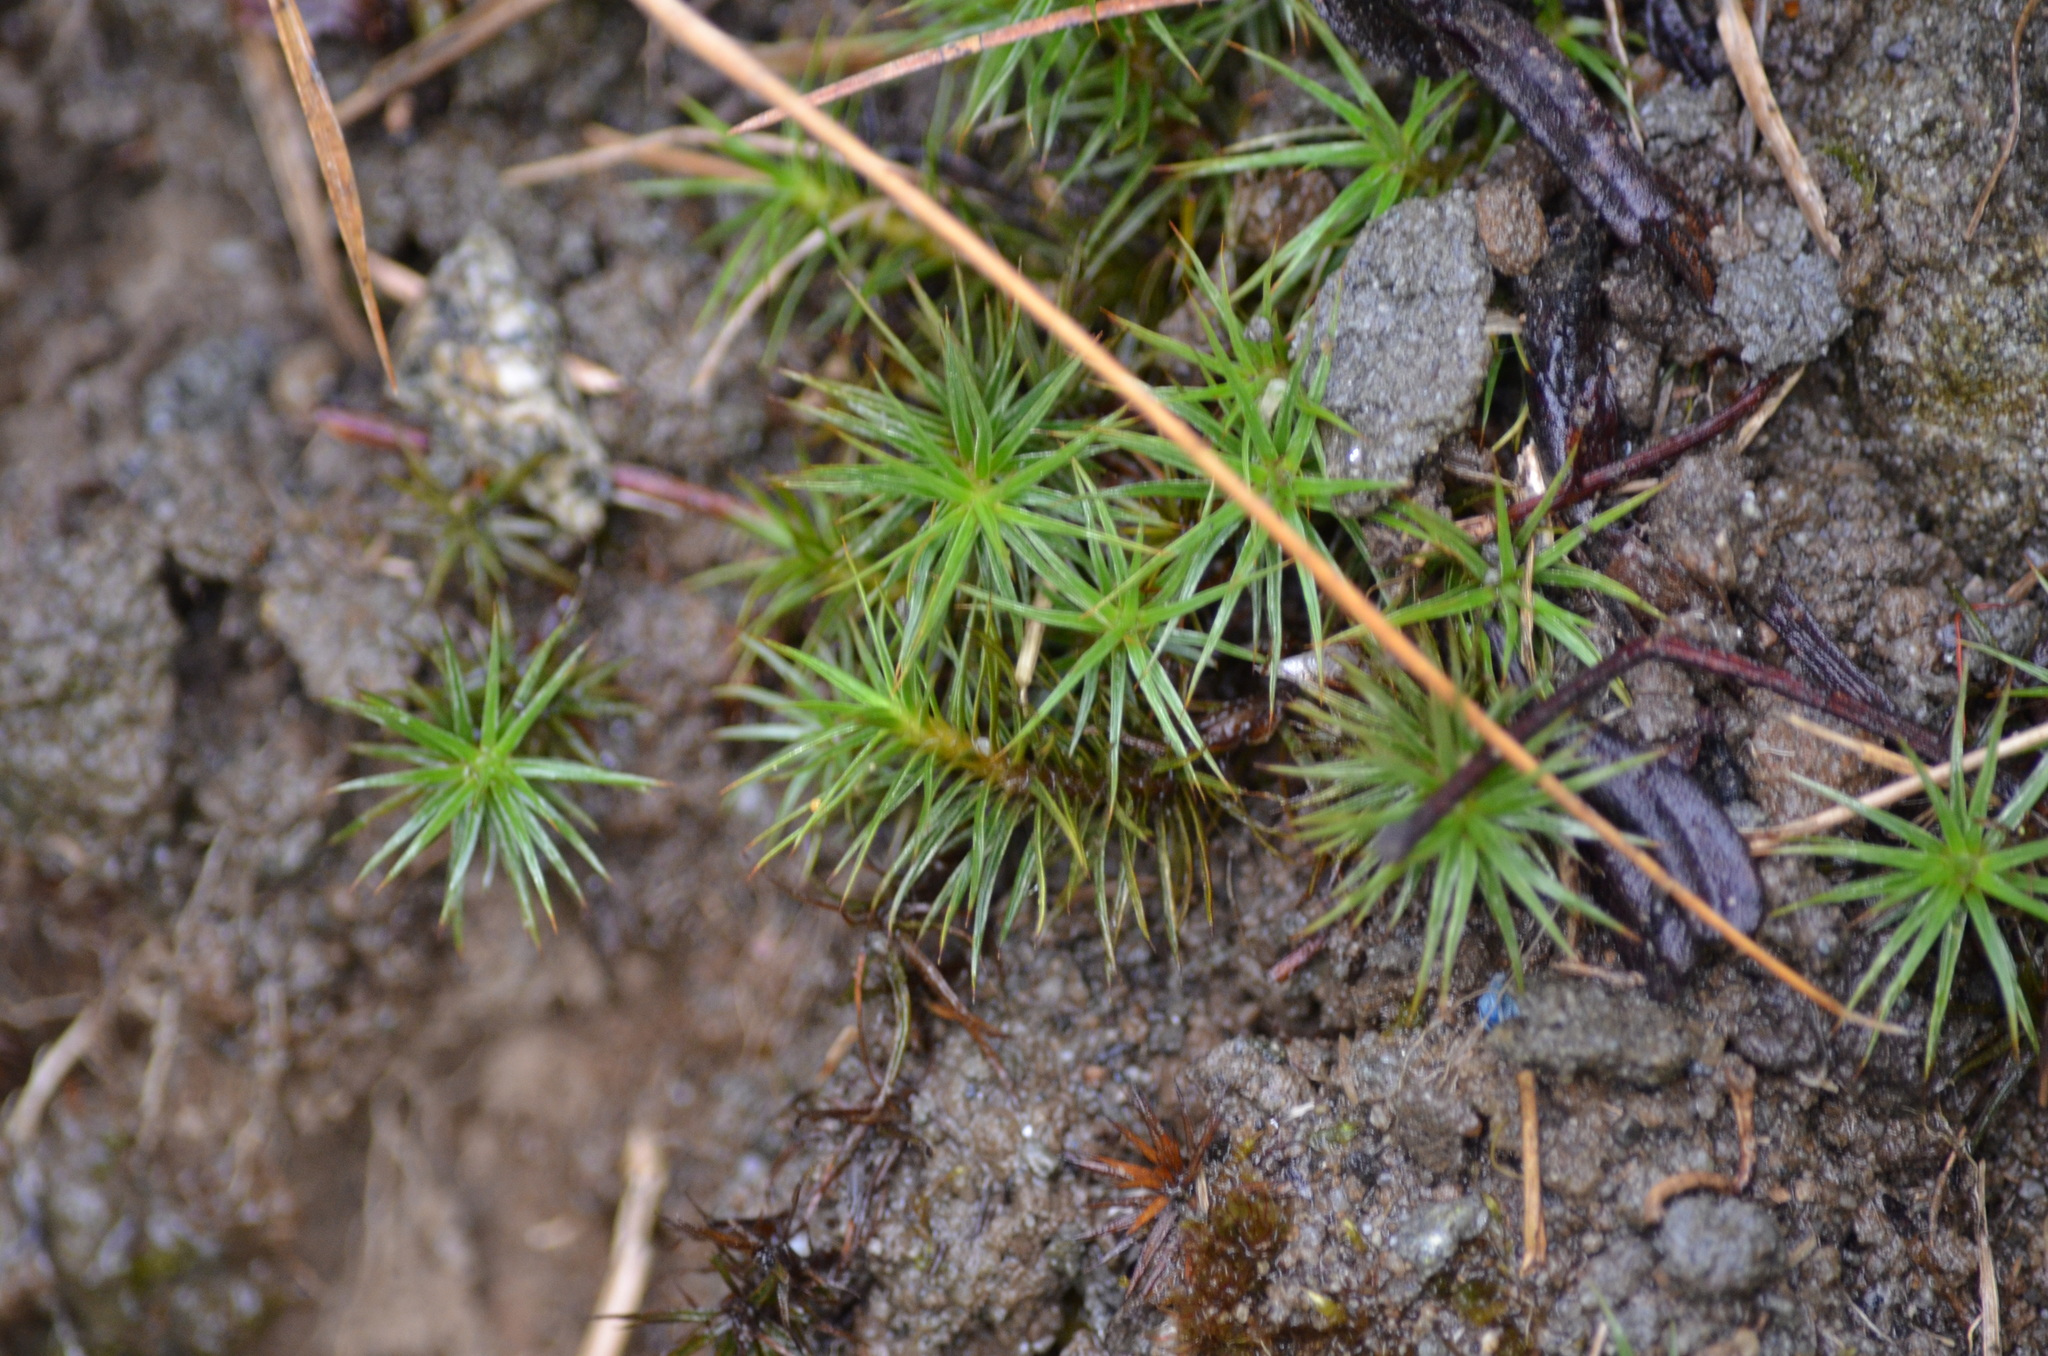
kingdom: Plantae
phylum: Bryophyta
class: Polytrichopsida
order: Polytrichales
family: Polytrichaceae
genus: Polytrichum
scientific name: Polytrichum juniperinum
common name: Juniper haircap moss
